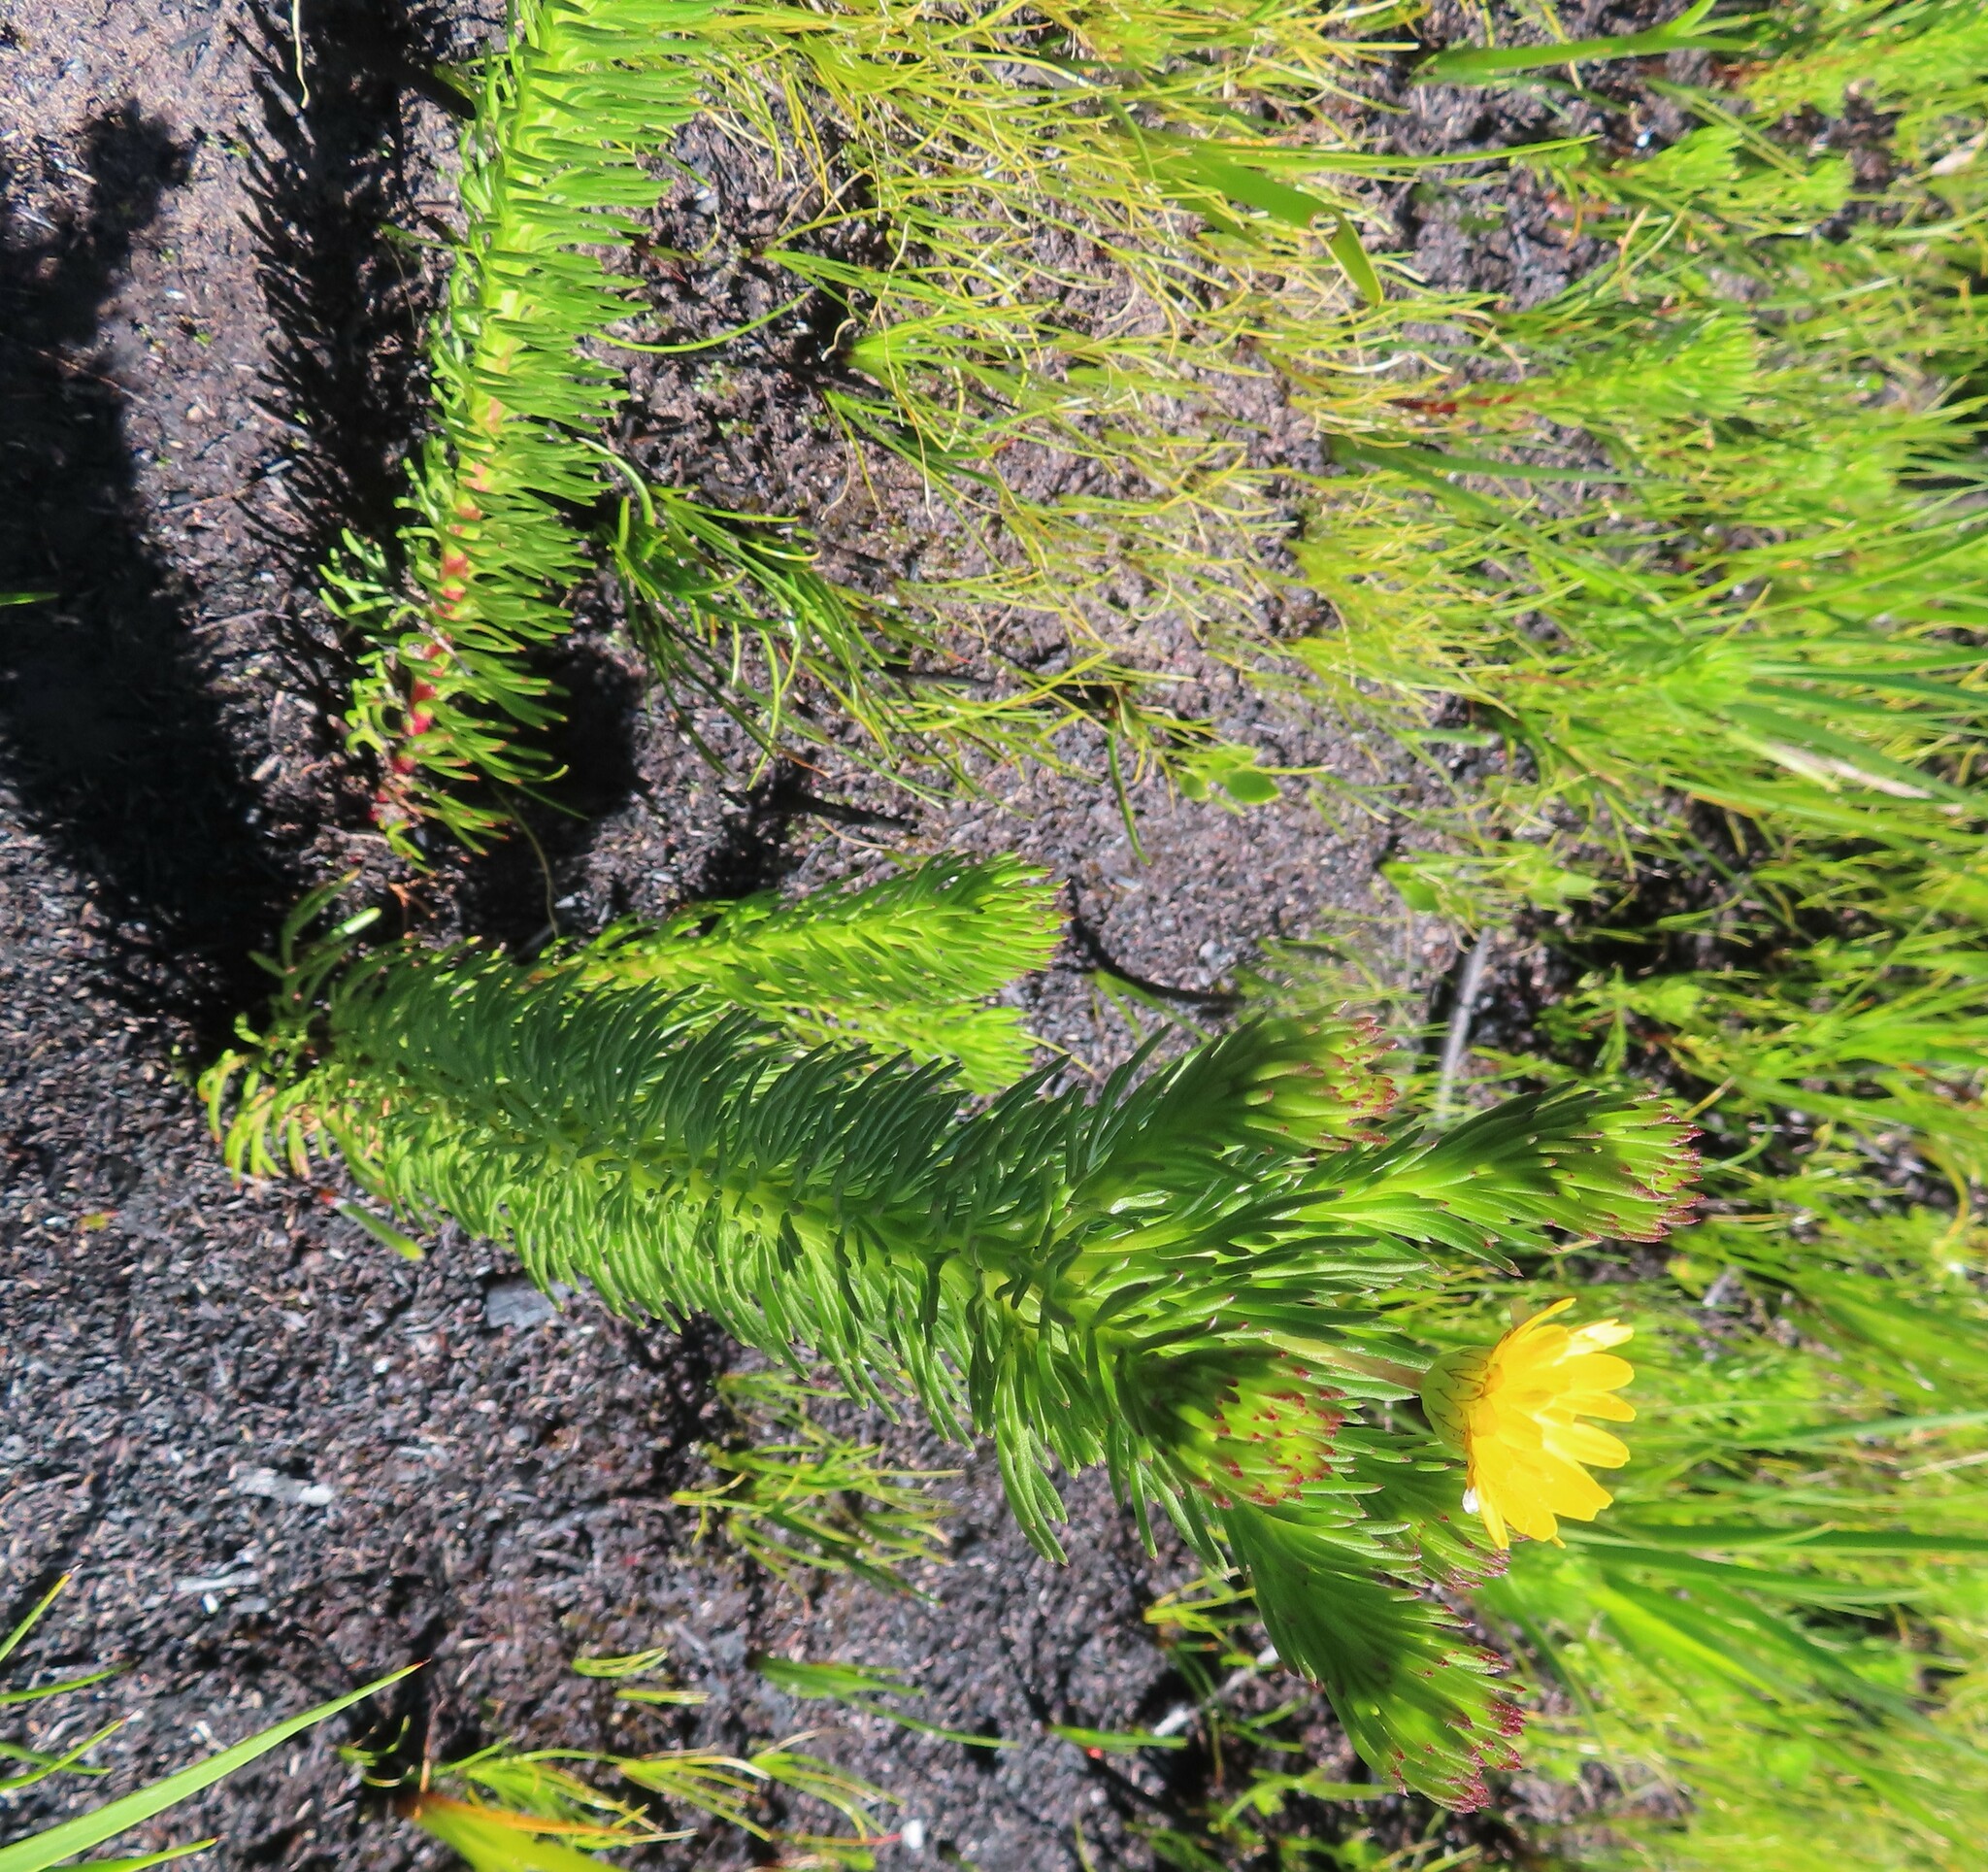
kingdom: Plantae
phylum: Tracheophyta
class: Magnoliopsida
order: Asterales
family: Asteraceae
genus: Ursinia
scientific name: Ursinia caledonica
